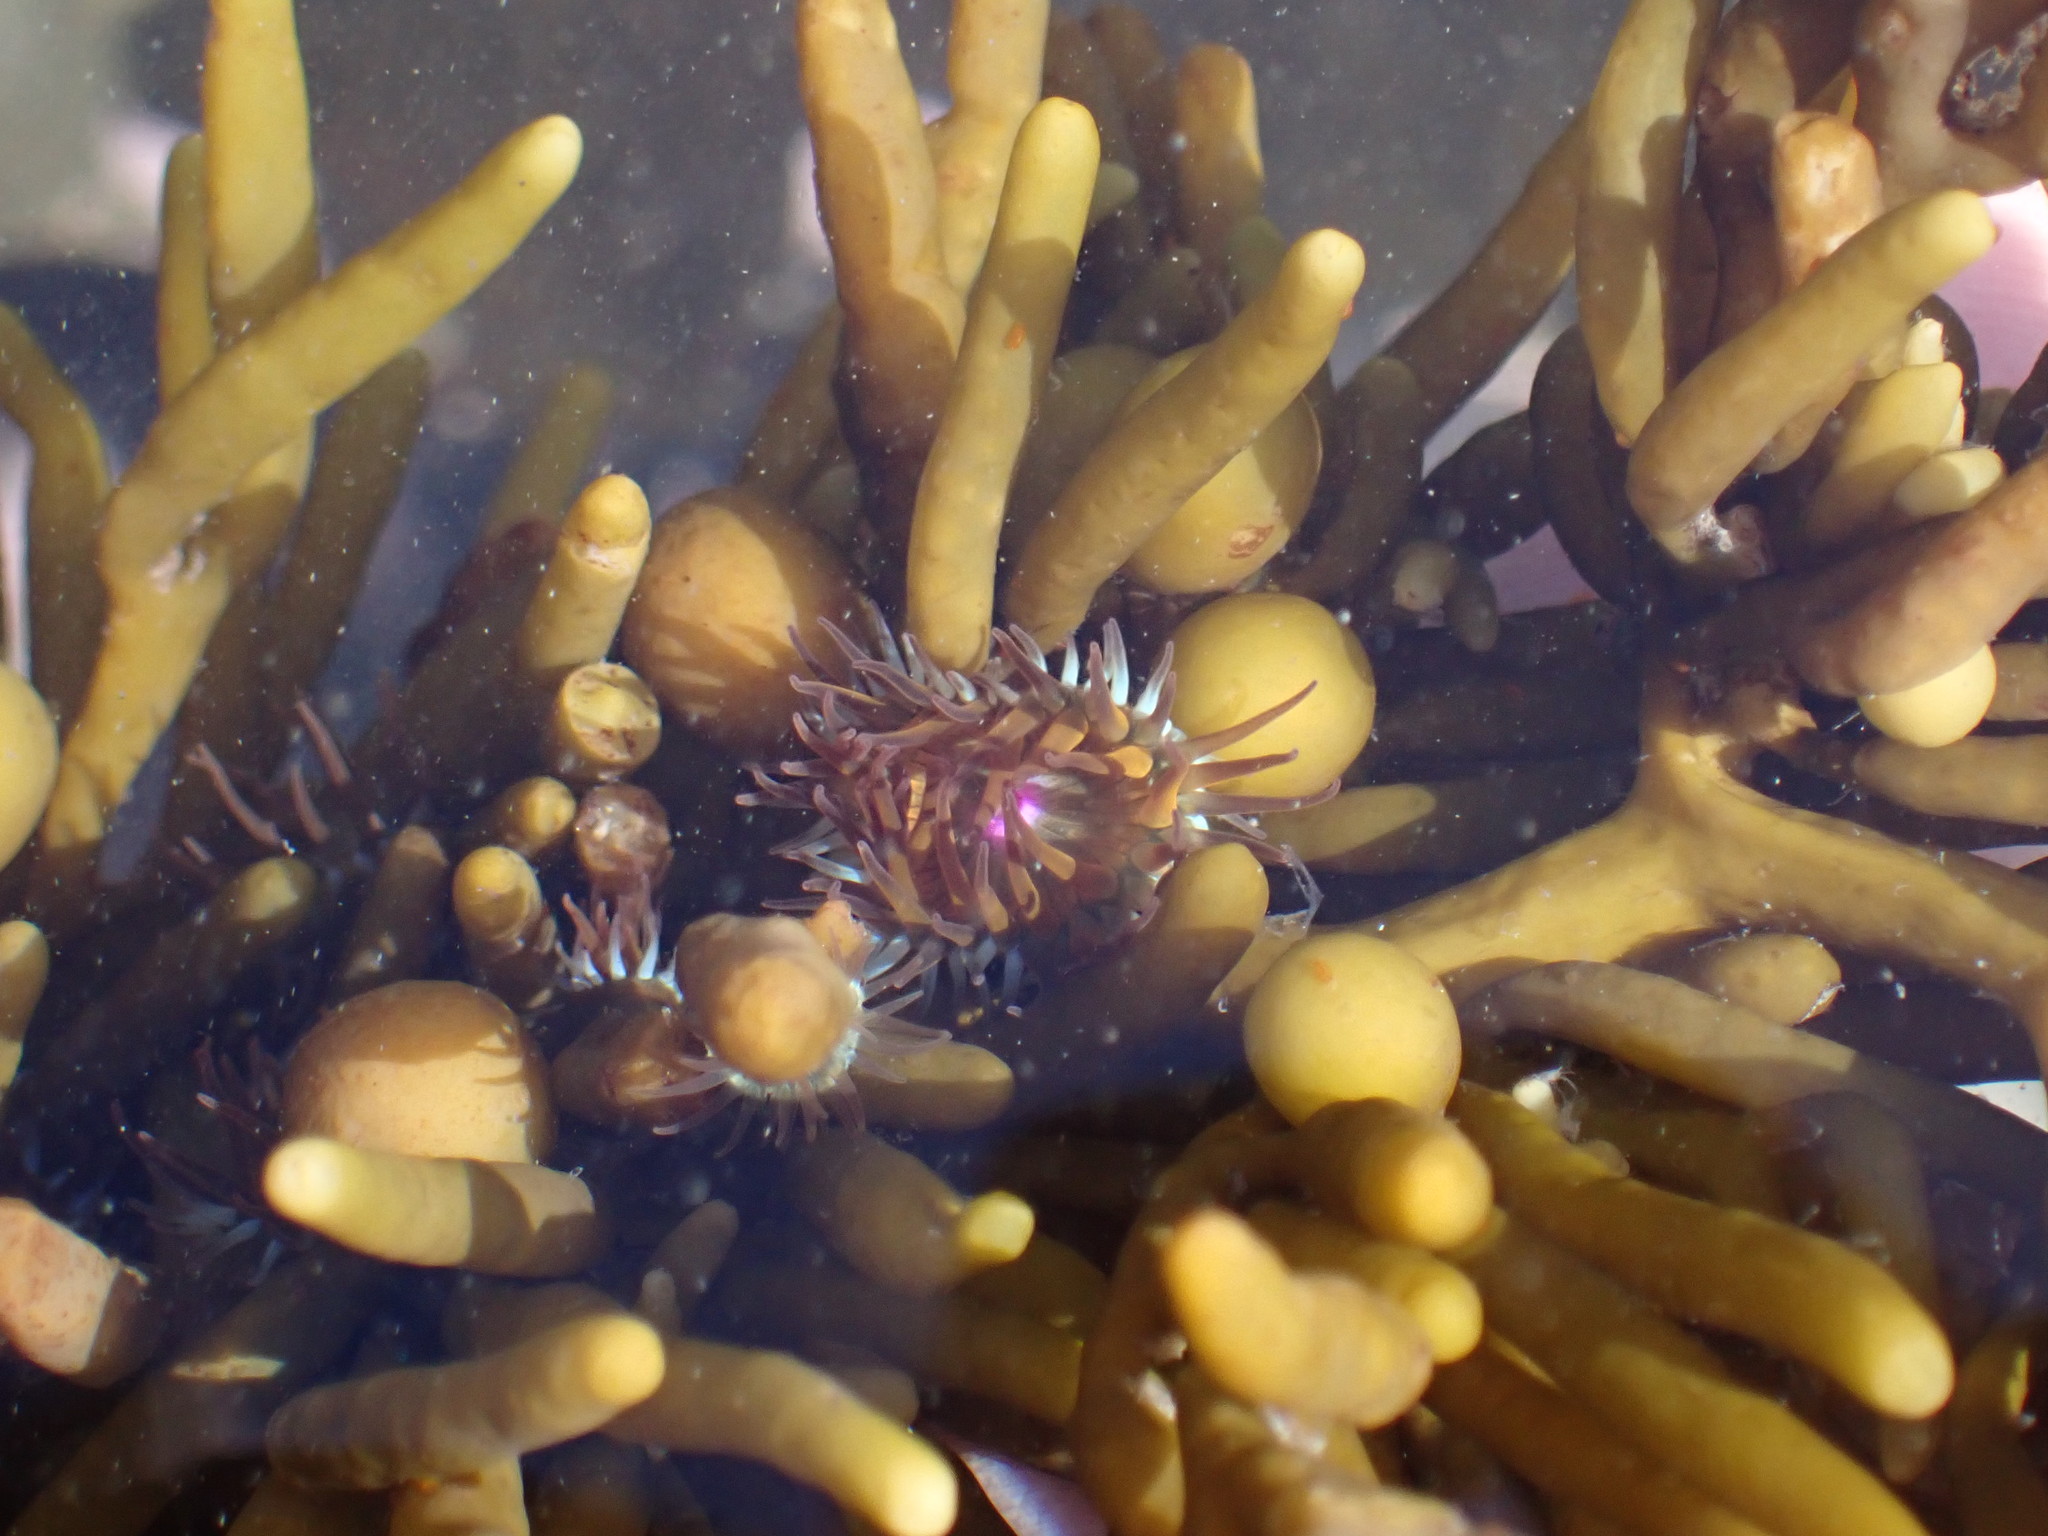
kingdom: Animalia
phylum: Cnidaria
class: Anthozoa
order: Actiniaria
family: Hormathiidae
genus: Handactis
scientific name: Handactis nutrix
